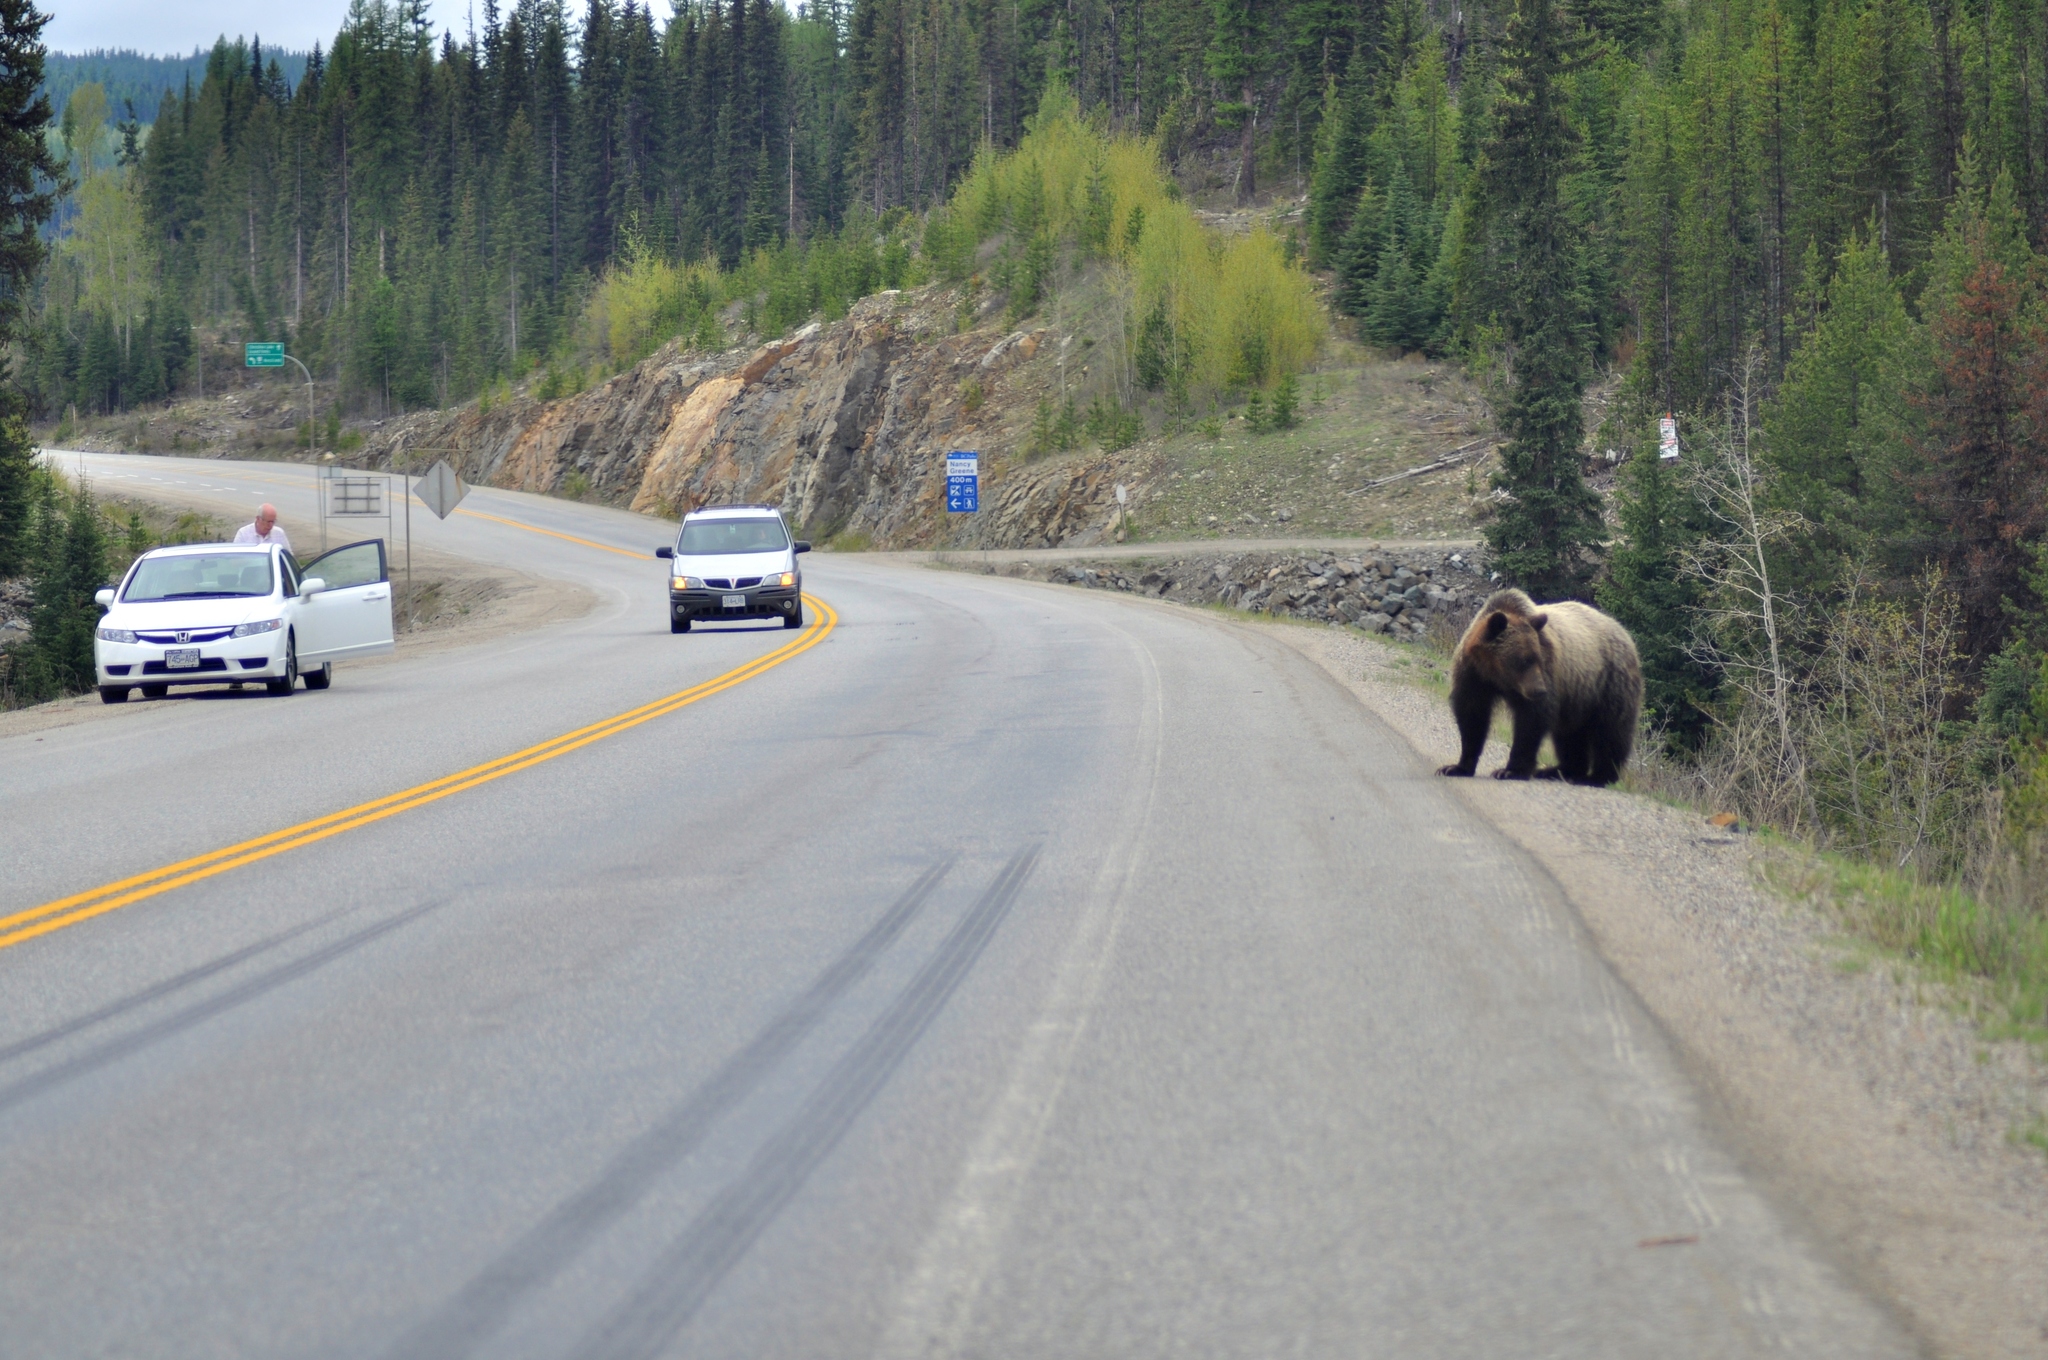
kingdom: Animalia
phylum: Chordata
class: Mammalia
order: Carnivora
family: Ursidae
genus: Ursus
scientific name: Ursus arctos
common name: Brown bear
